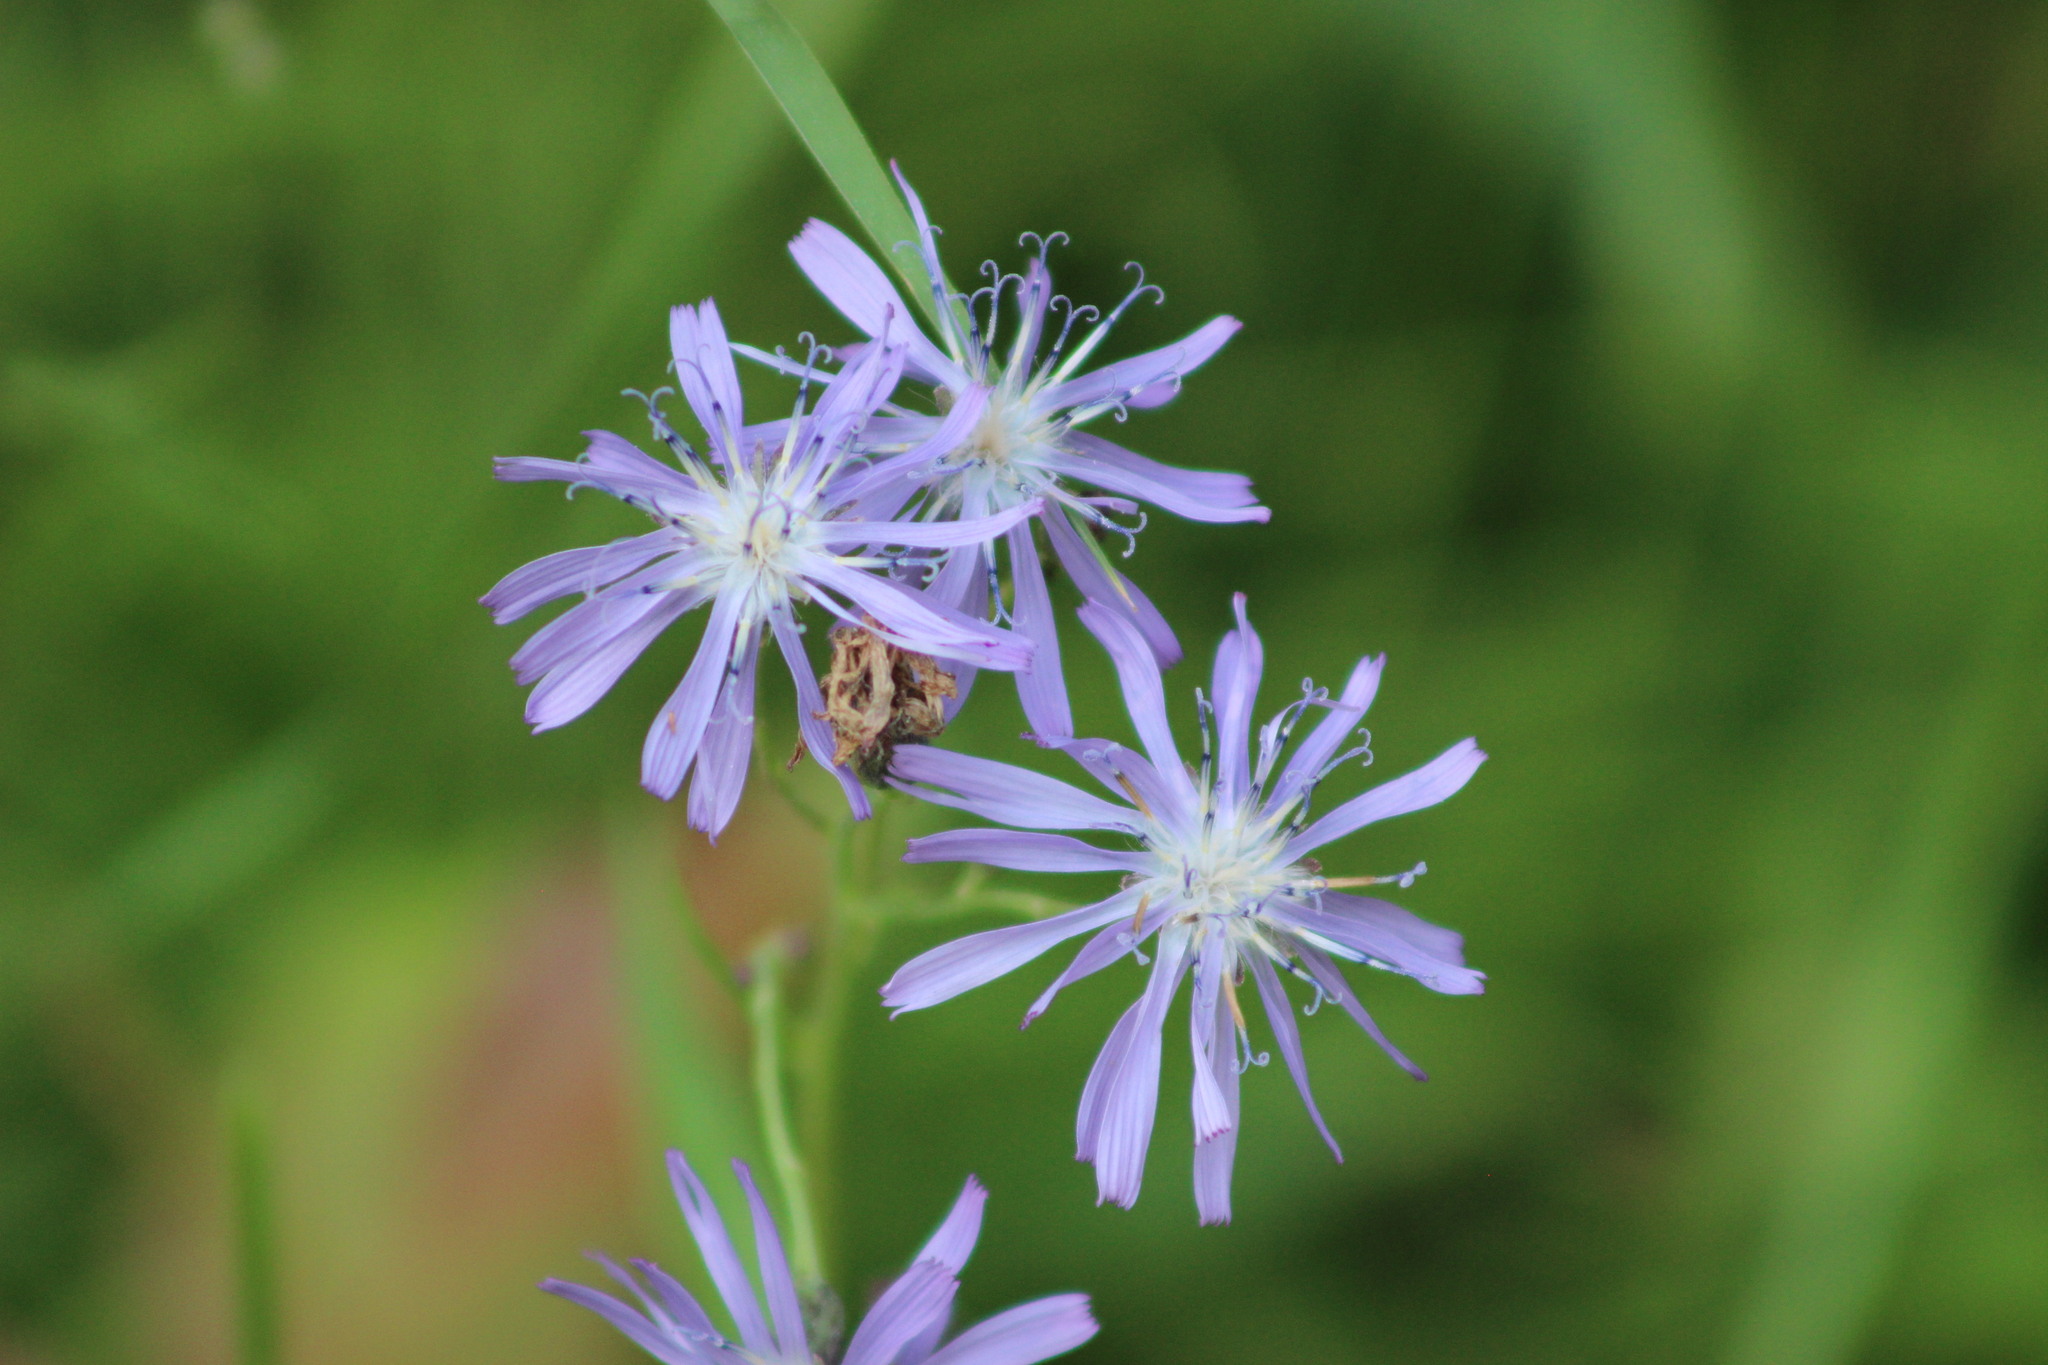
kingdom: Plantae
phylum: Tracheophyta
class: Magnoliopsida
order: Asterales
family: Asteraceae
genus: Lactuca
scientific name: Lactuca sibirica
